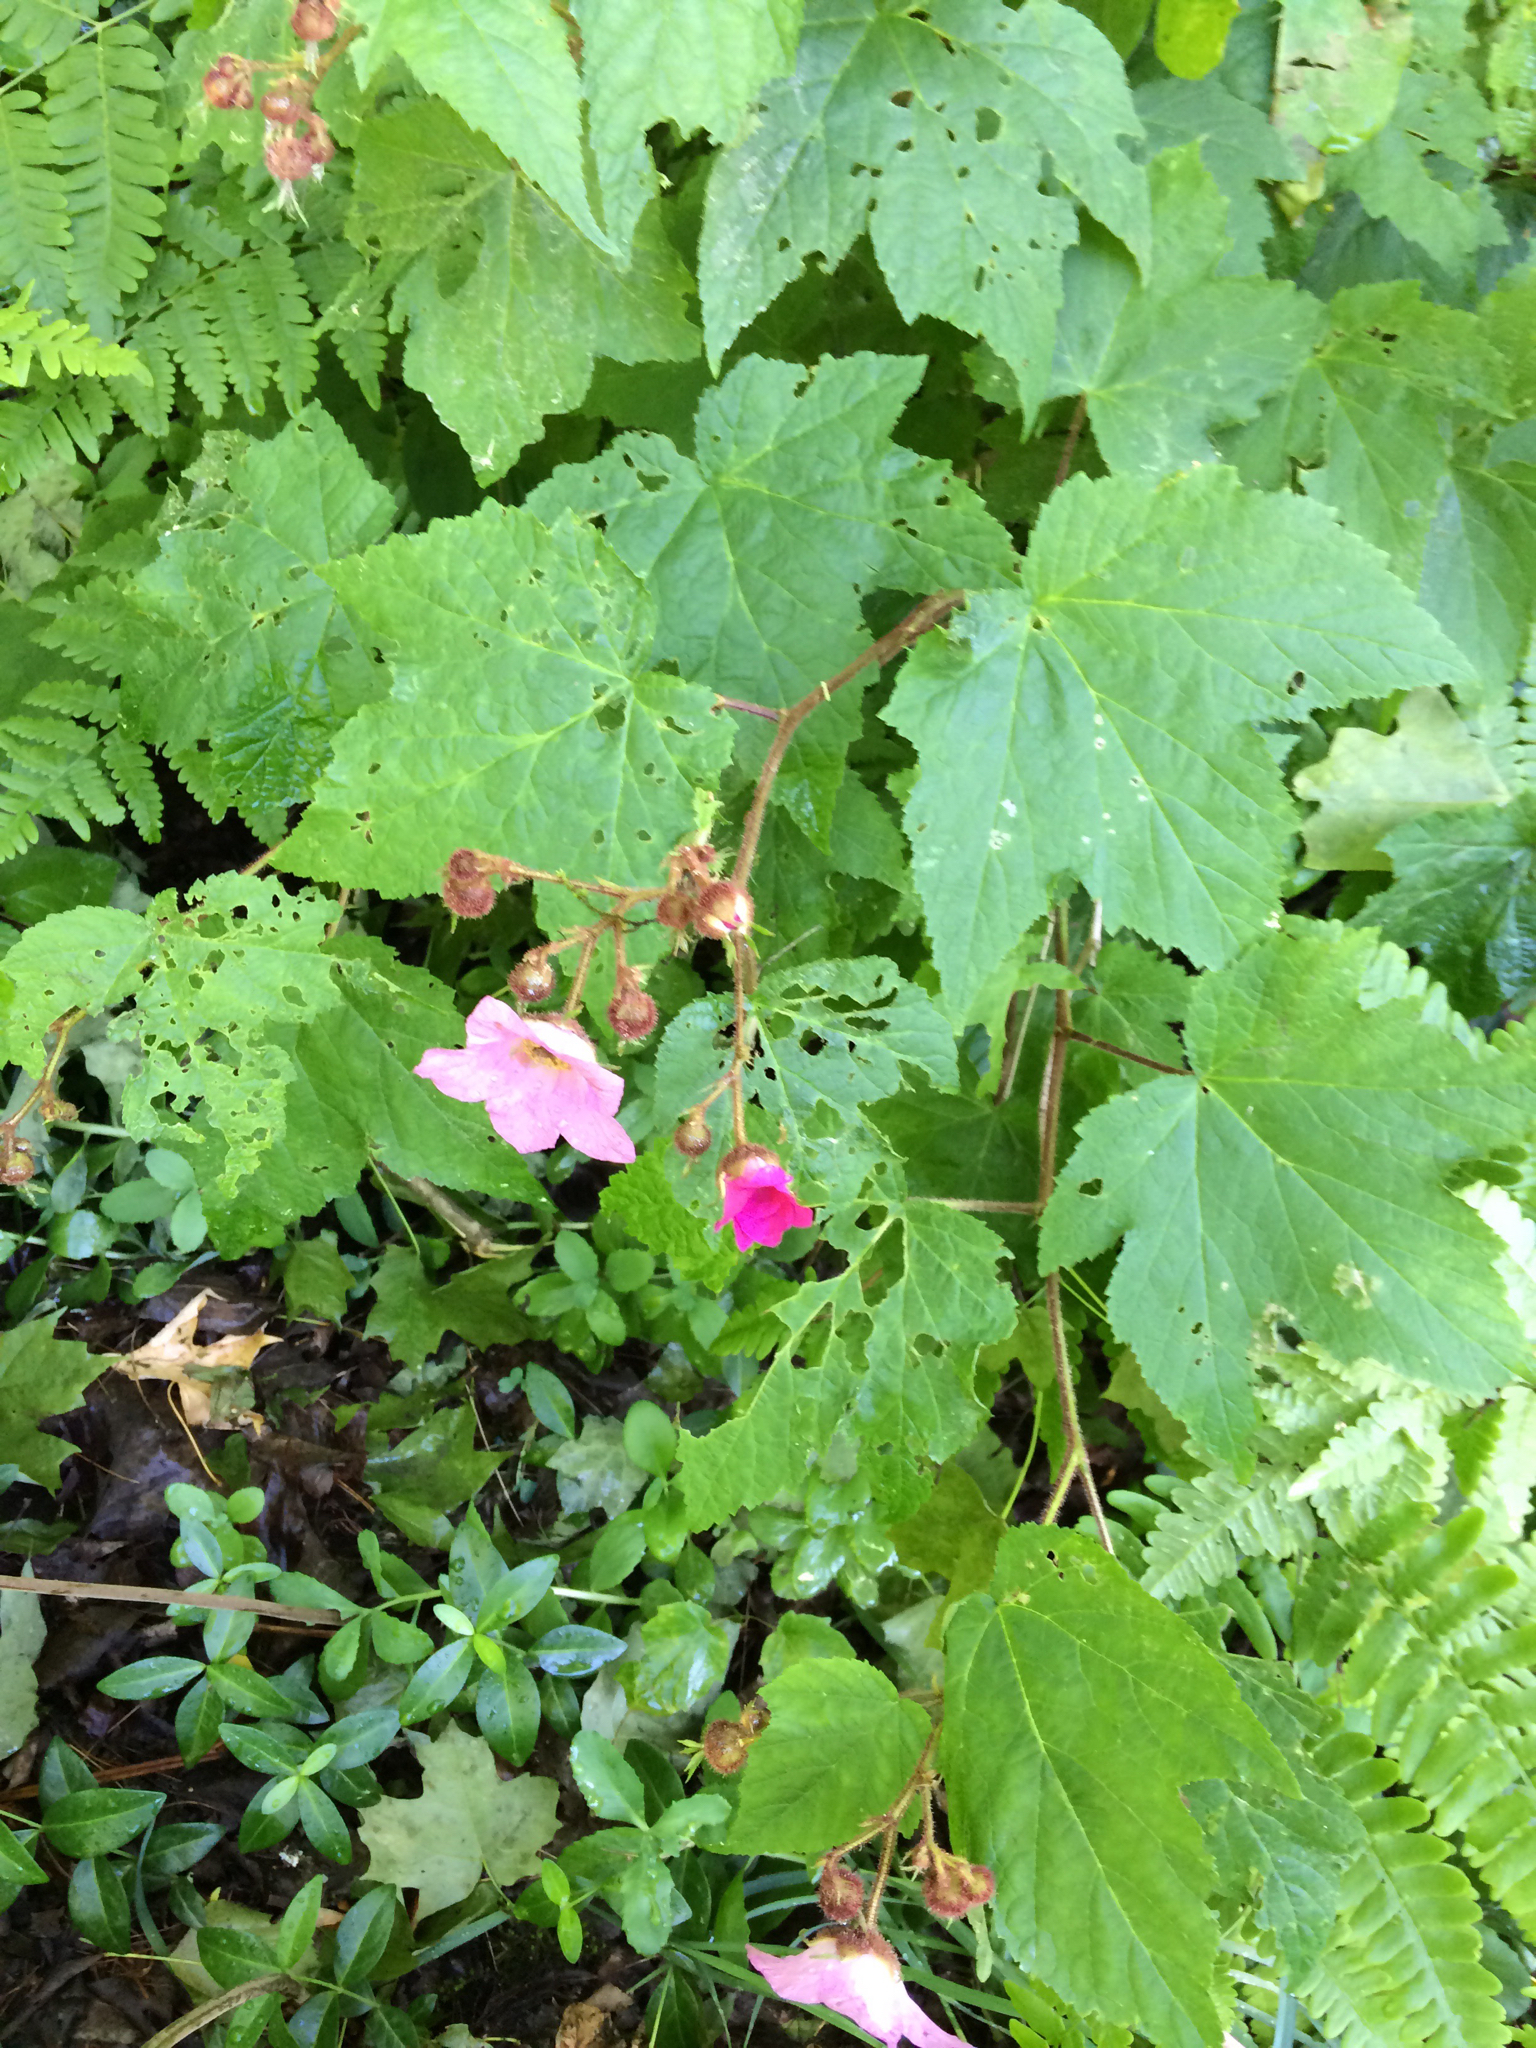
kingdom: Plantae
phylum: Tracheophyta
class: Magnoliopsida
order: Rosales
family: Rosaceae
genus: Rubus
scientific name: Rubus odoratus
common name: Purple-flowered raspberry
